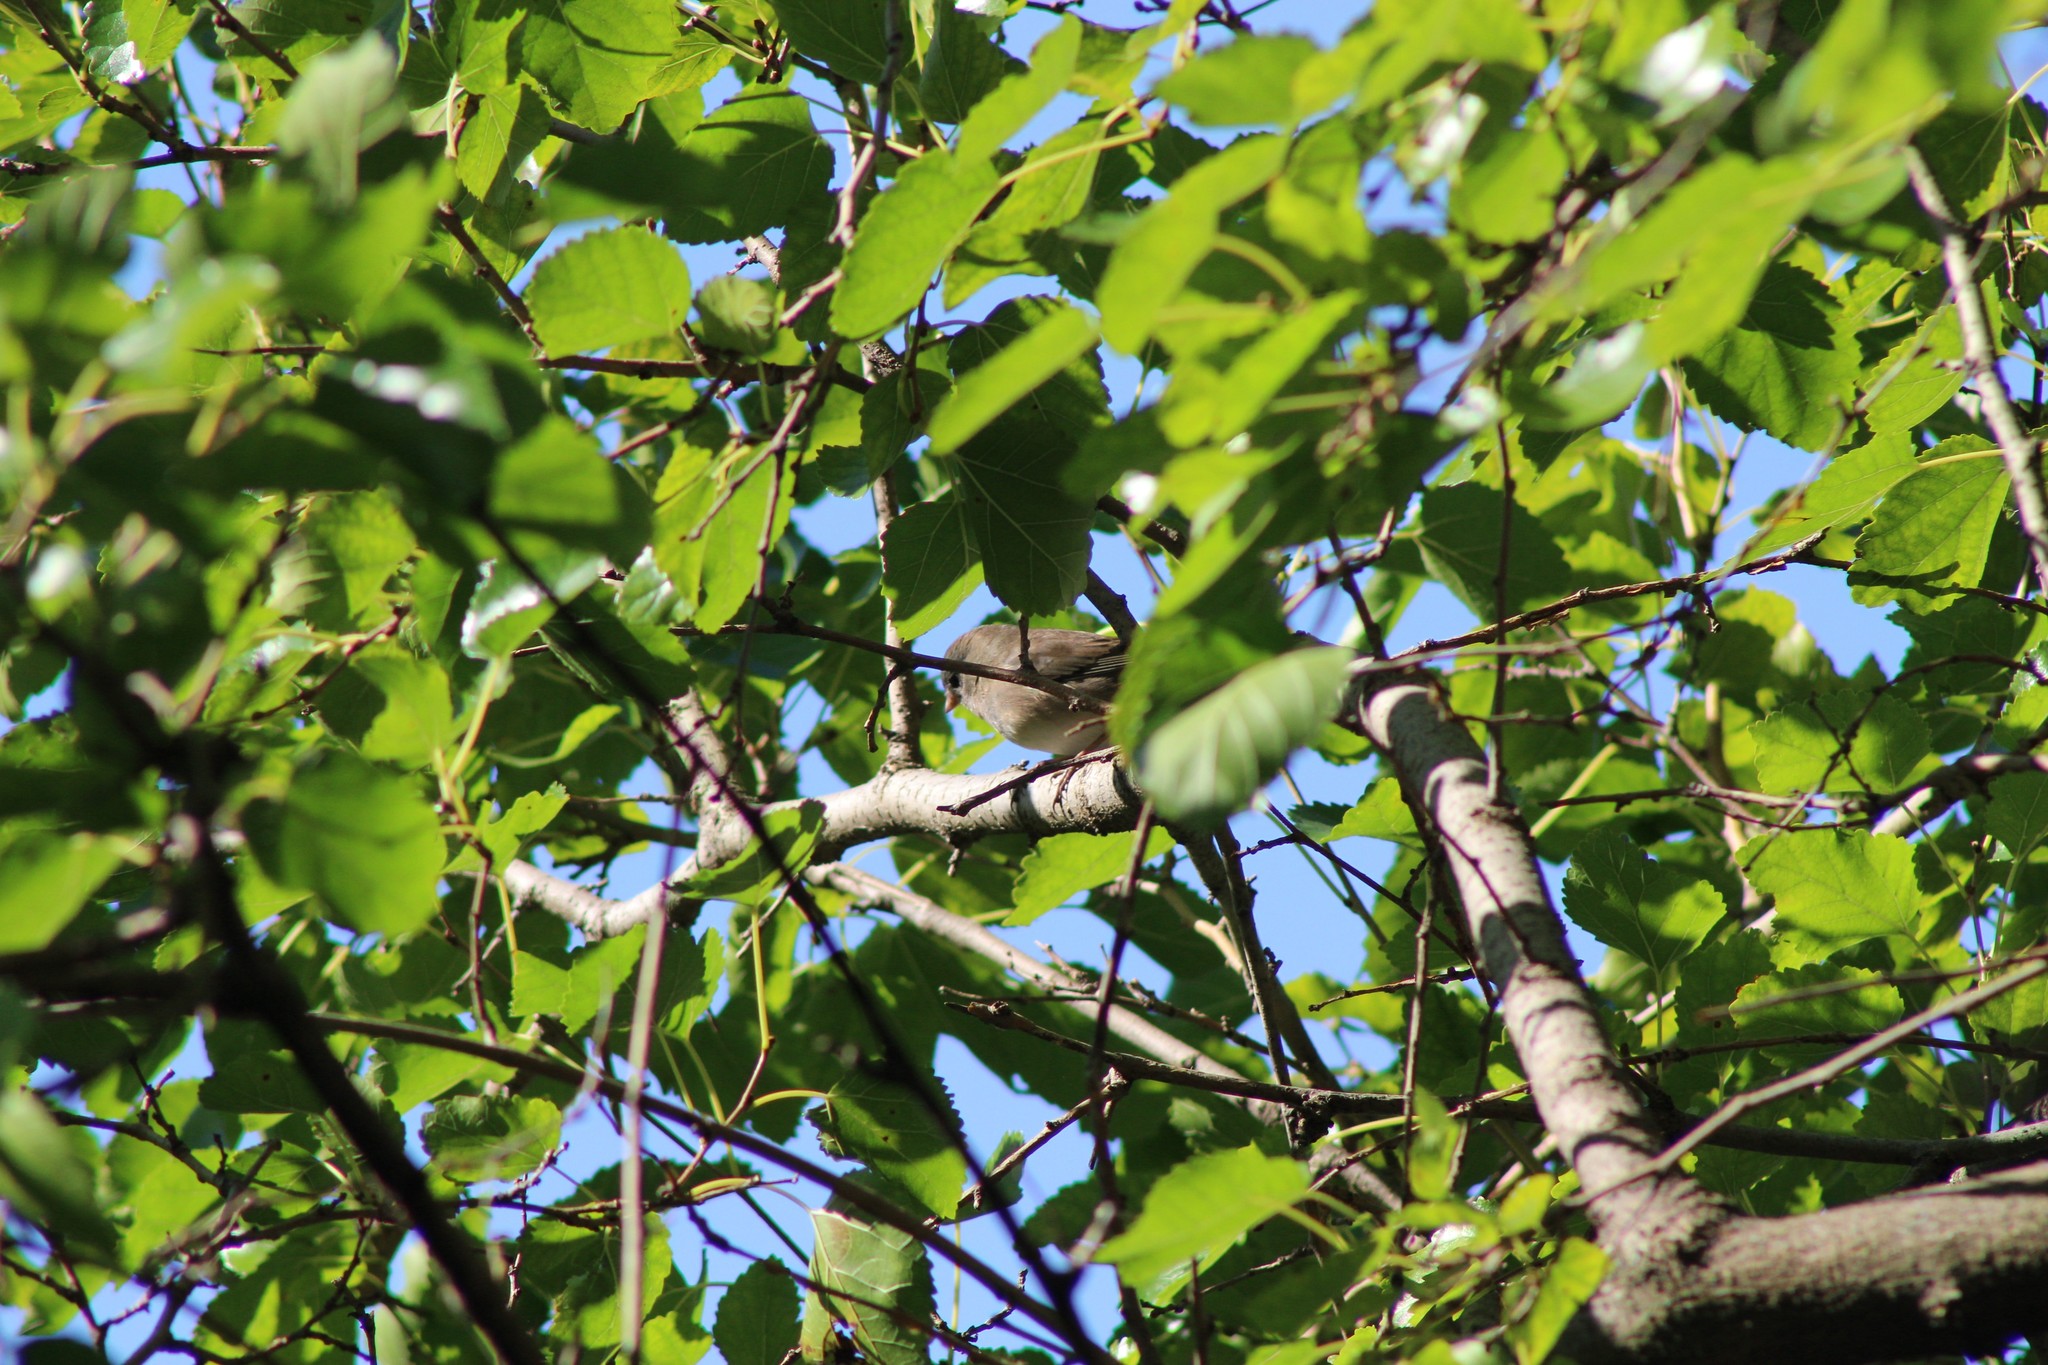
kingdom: Animalia
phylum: Chordata
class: Aves
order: Passeriformes
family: Passerellidae
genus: Junco
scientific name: Junco hyemalis
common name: Dark-eyed junco
